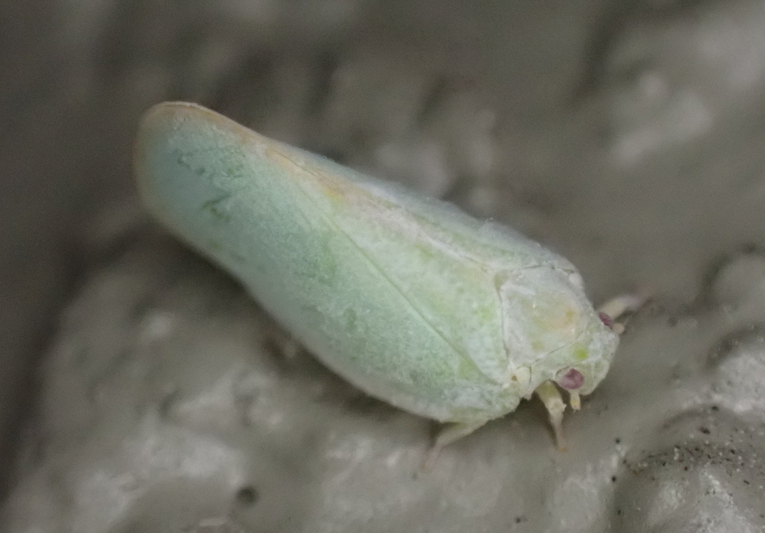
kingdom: Animalia
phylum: Arthropoda
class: Insecta
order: Hemiptera
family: Flatidae
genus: Ormenoides
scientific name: Ormenoides venusta
